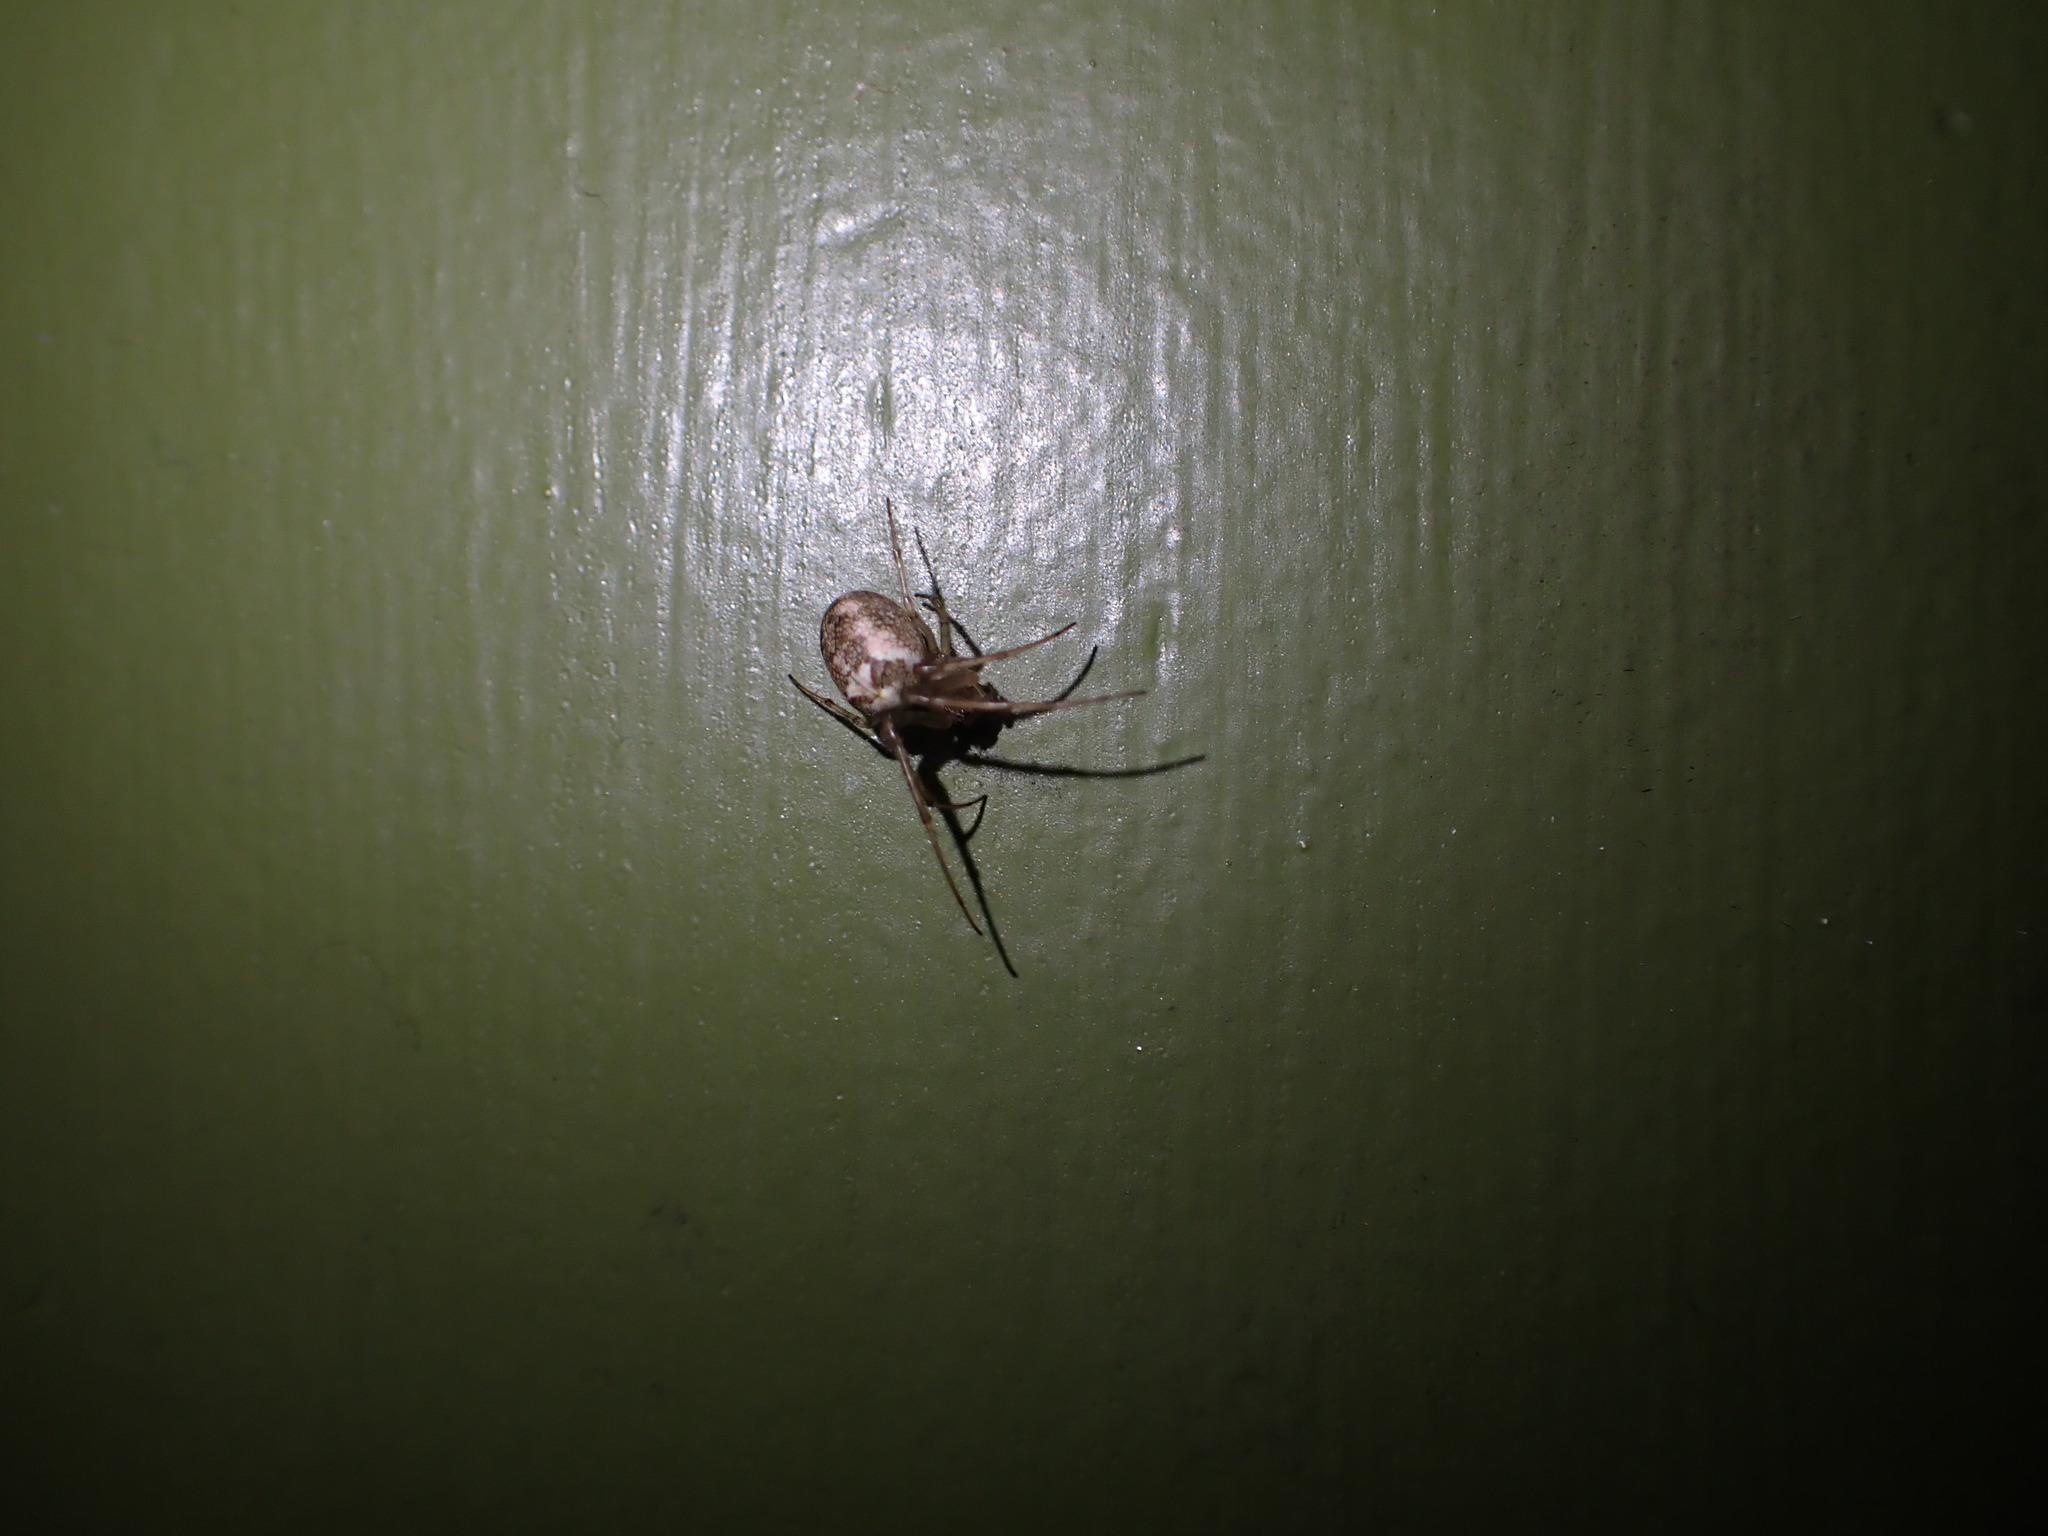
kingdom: Animalia
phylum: Arthropoda
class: Arachnida
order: Araneae
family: Tetragnathidae
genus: Metellina
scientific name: Metellina
